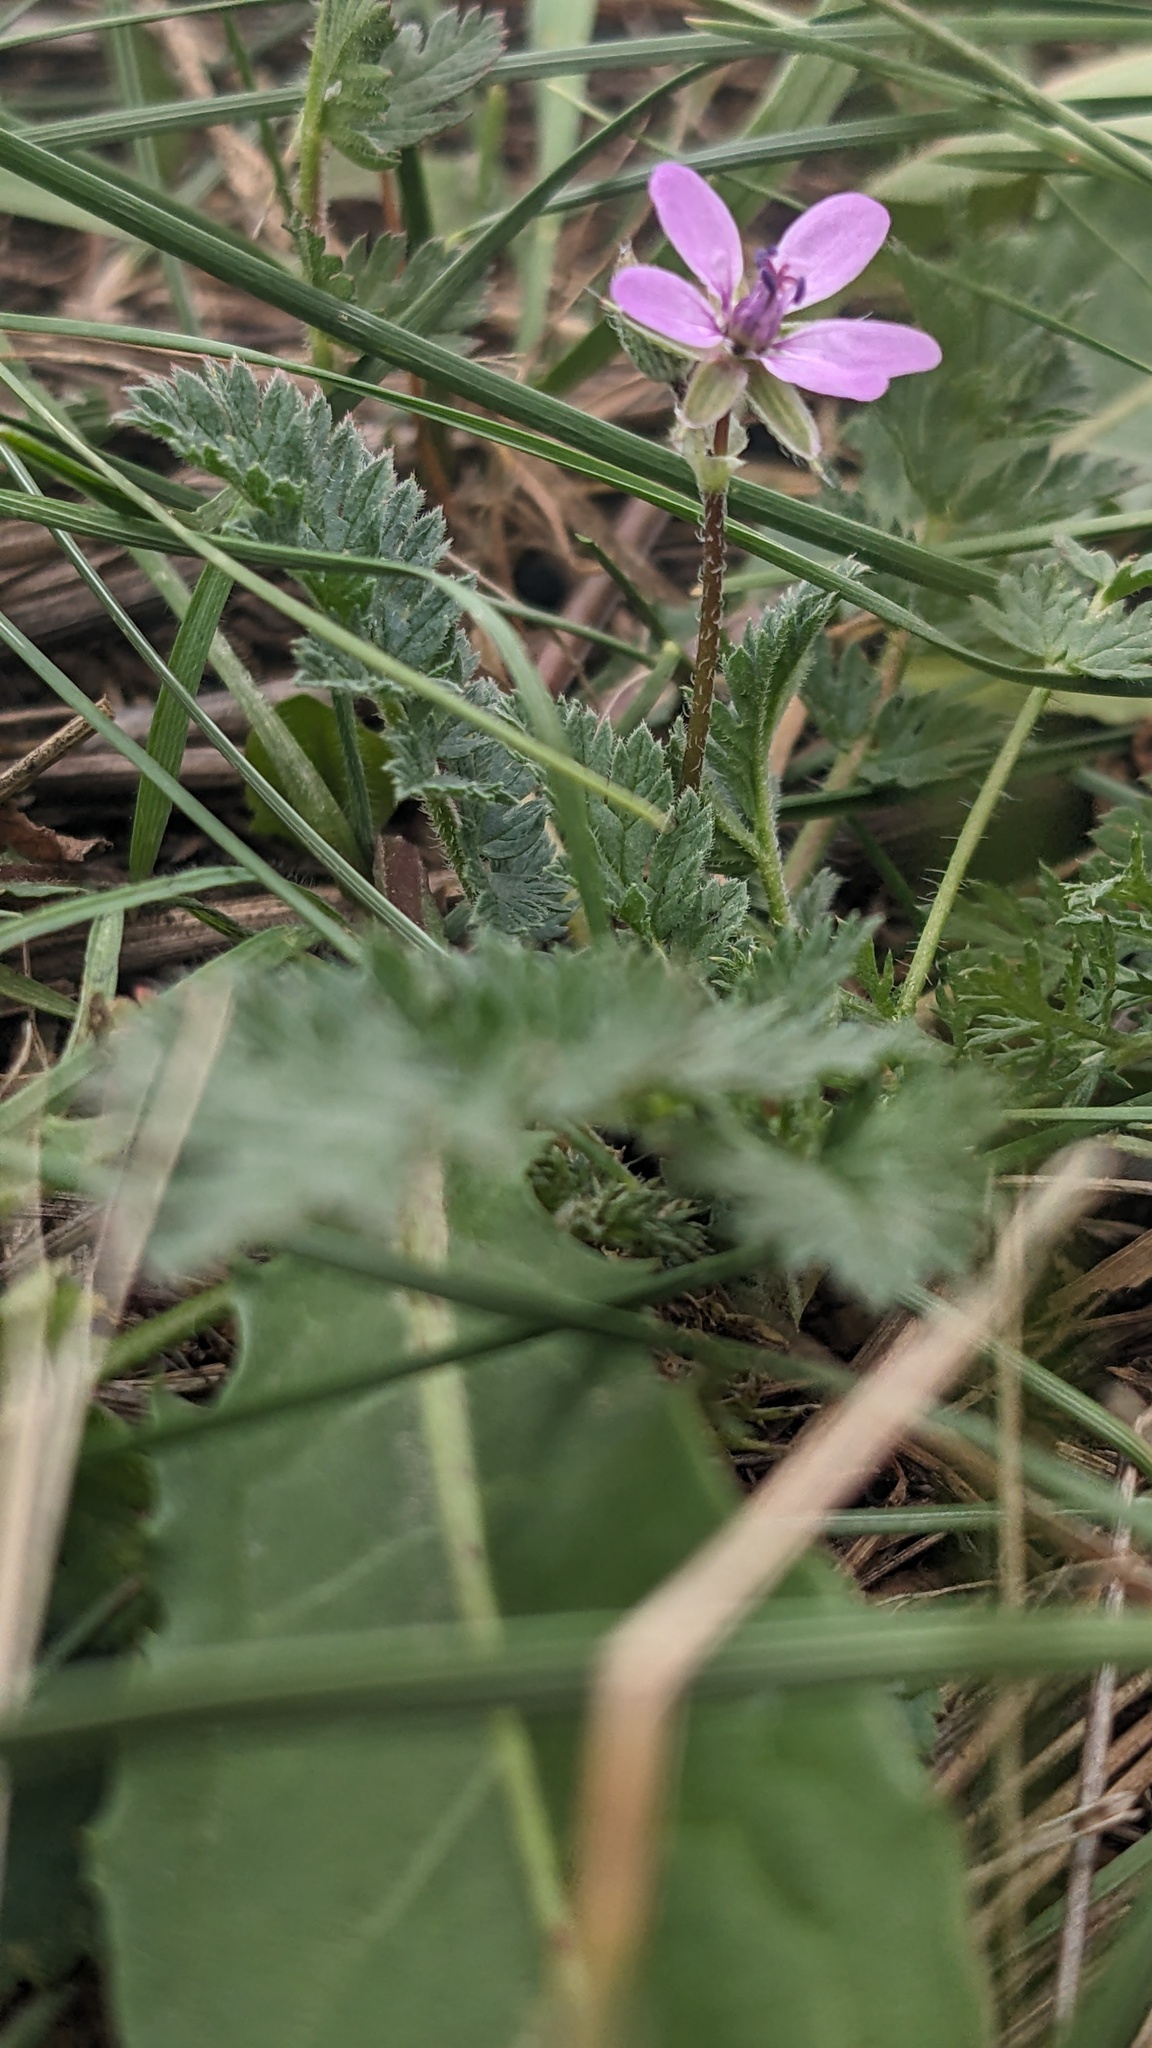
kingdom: Plantae
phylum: Tracheophyta
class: Magnoliopsida
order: Geraniales
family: Geraniaceae
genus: Erodium
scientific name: Erodium cicutarium
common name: Common stork's-bill
